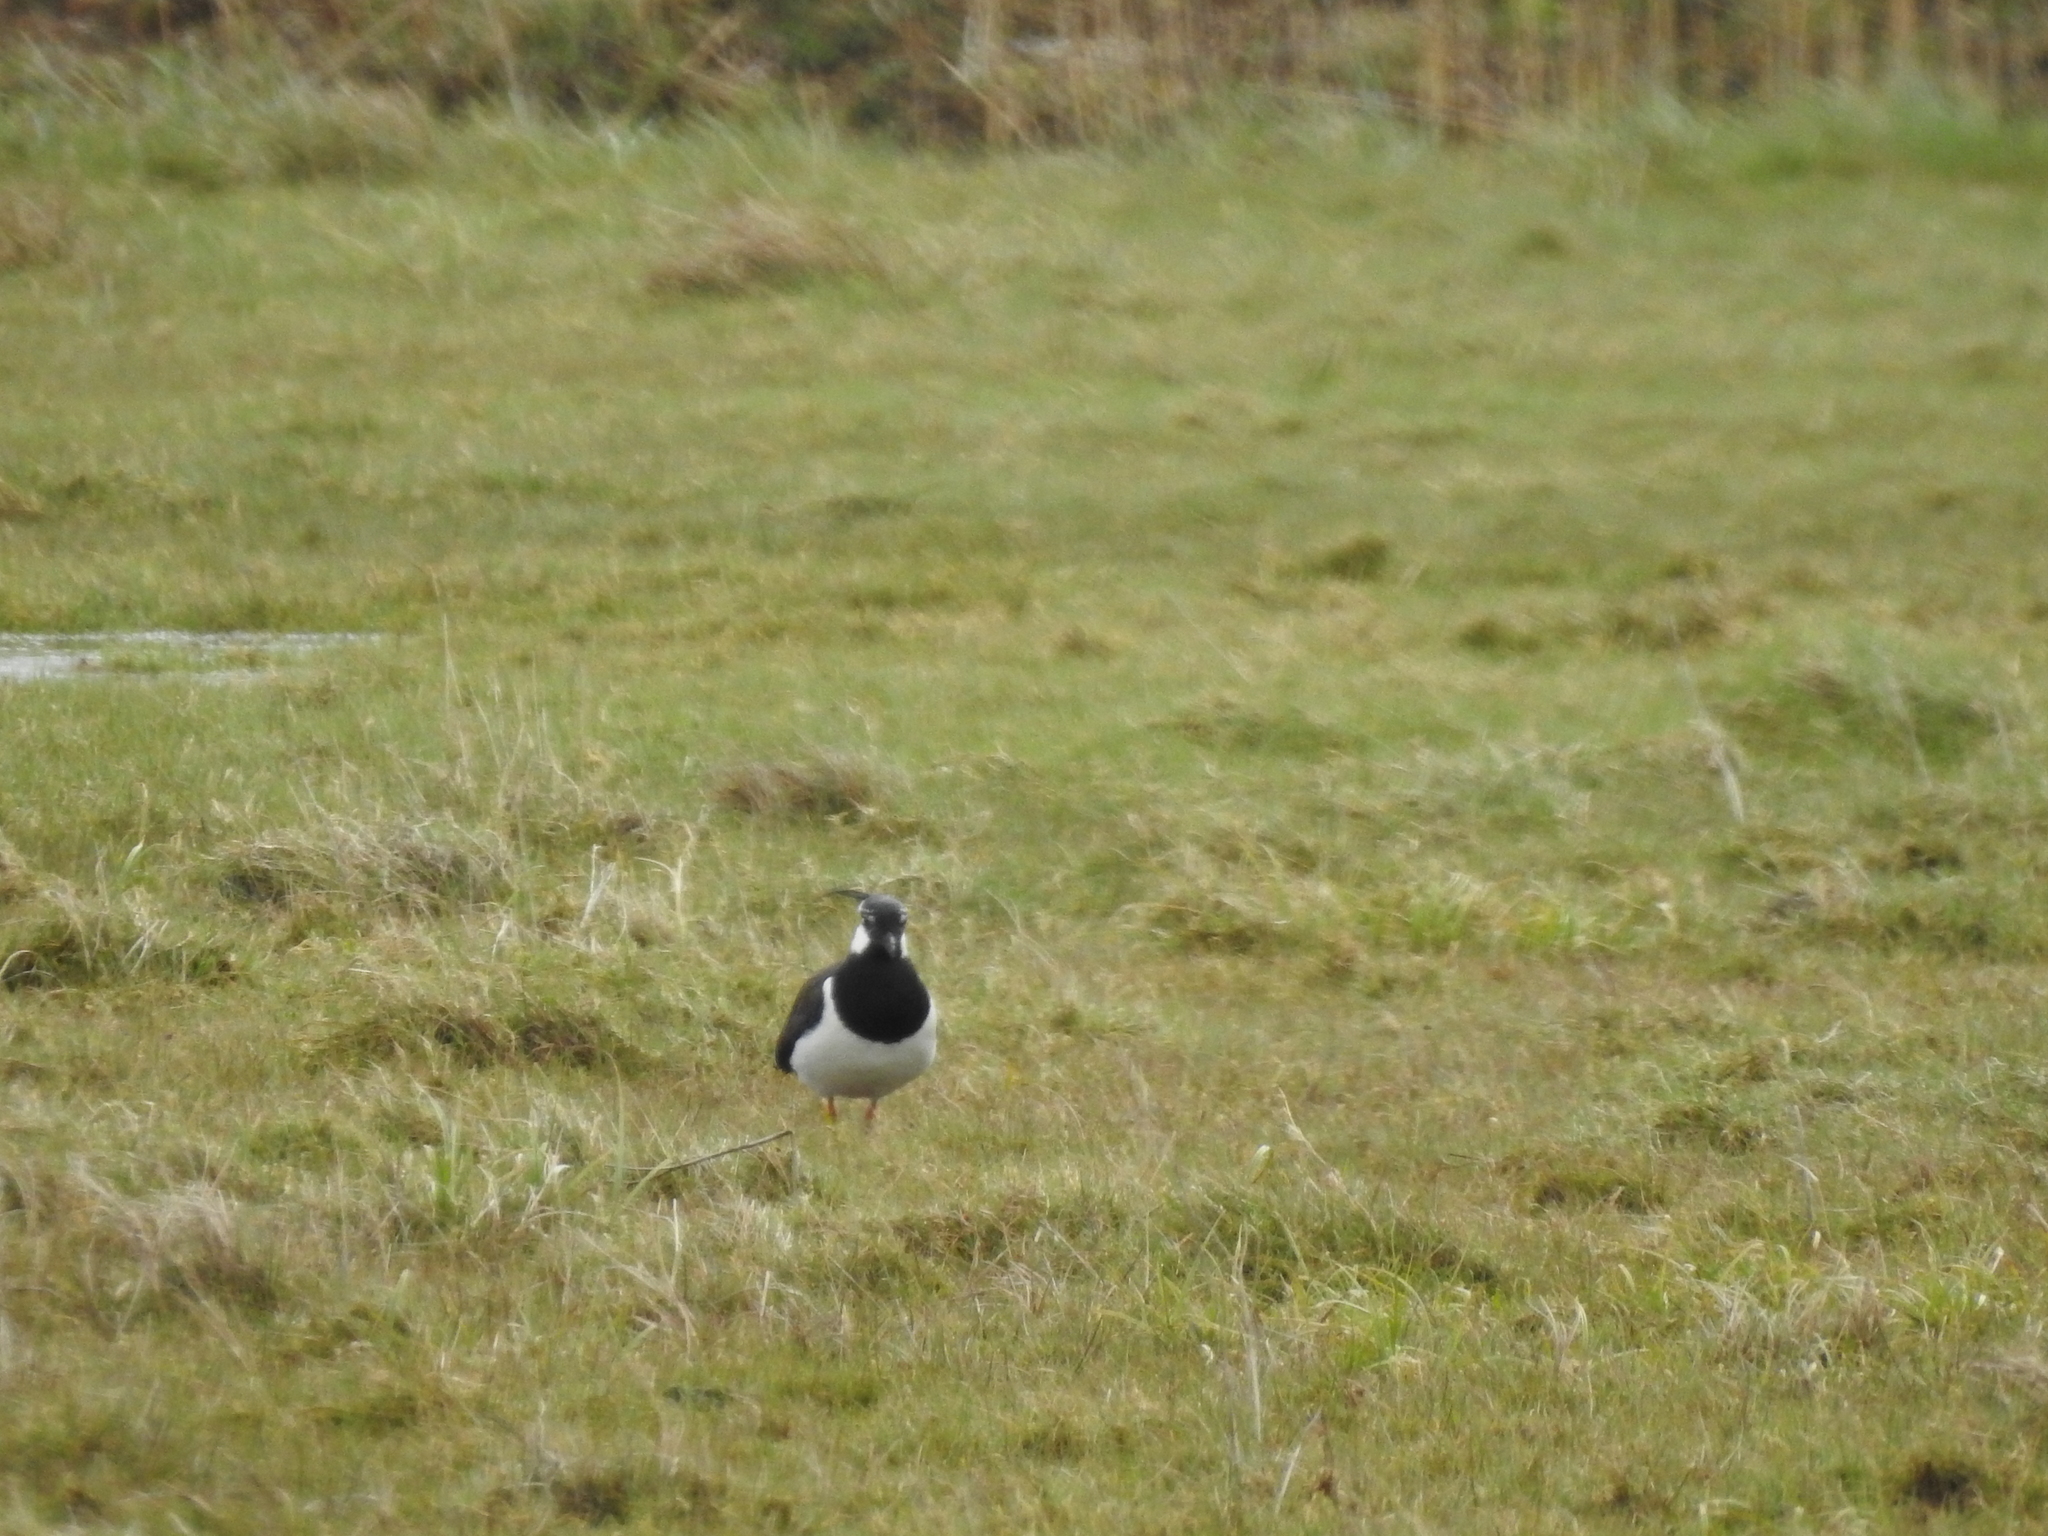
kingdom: Animalia
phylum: Chordata
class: Aves
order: Charadriiformes
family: Charadriidae
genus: Vanellus
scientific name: Vanellus vanellus
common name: Northern lapwing
